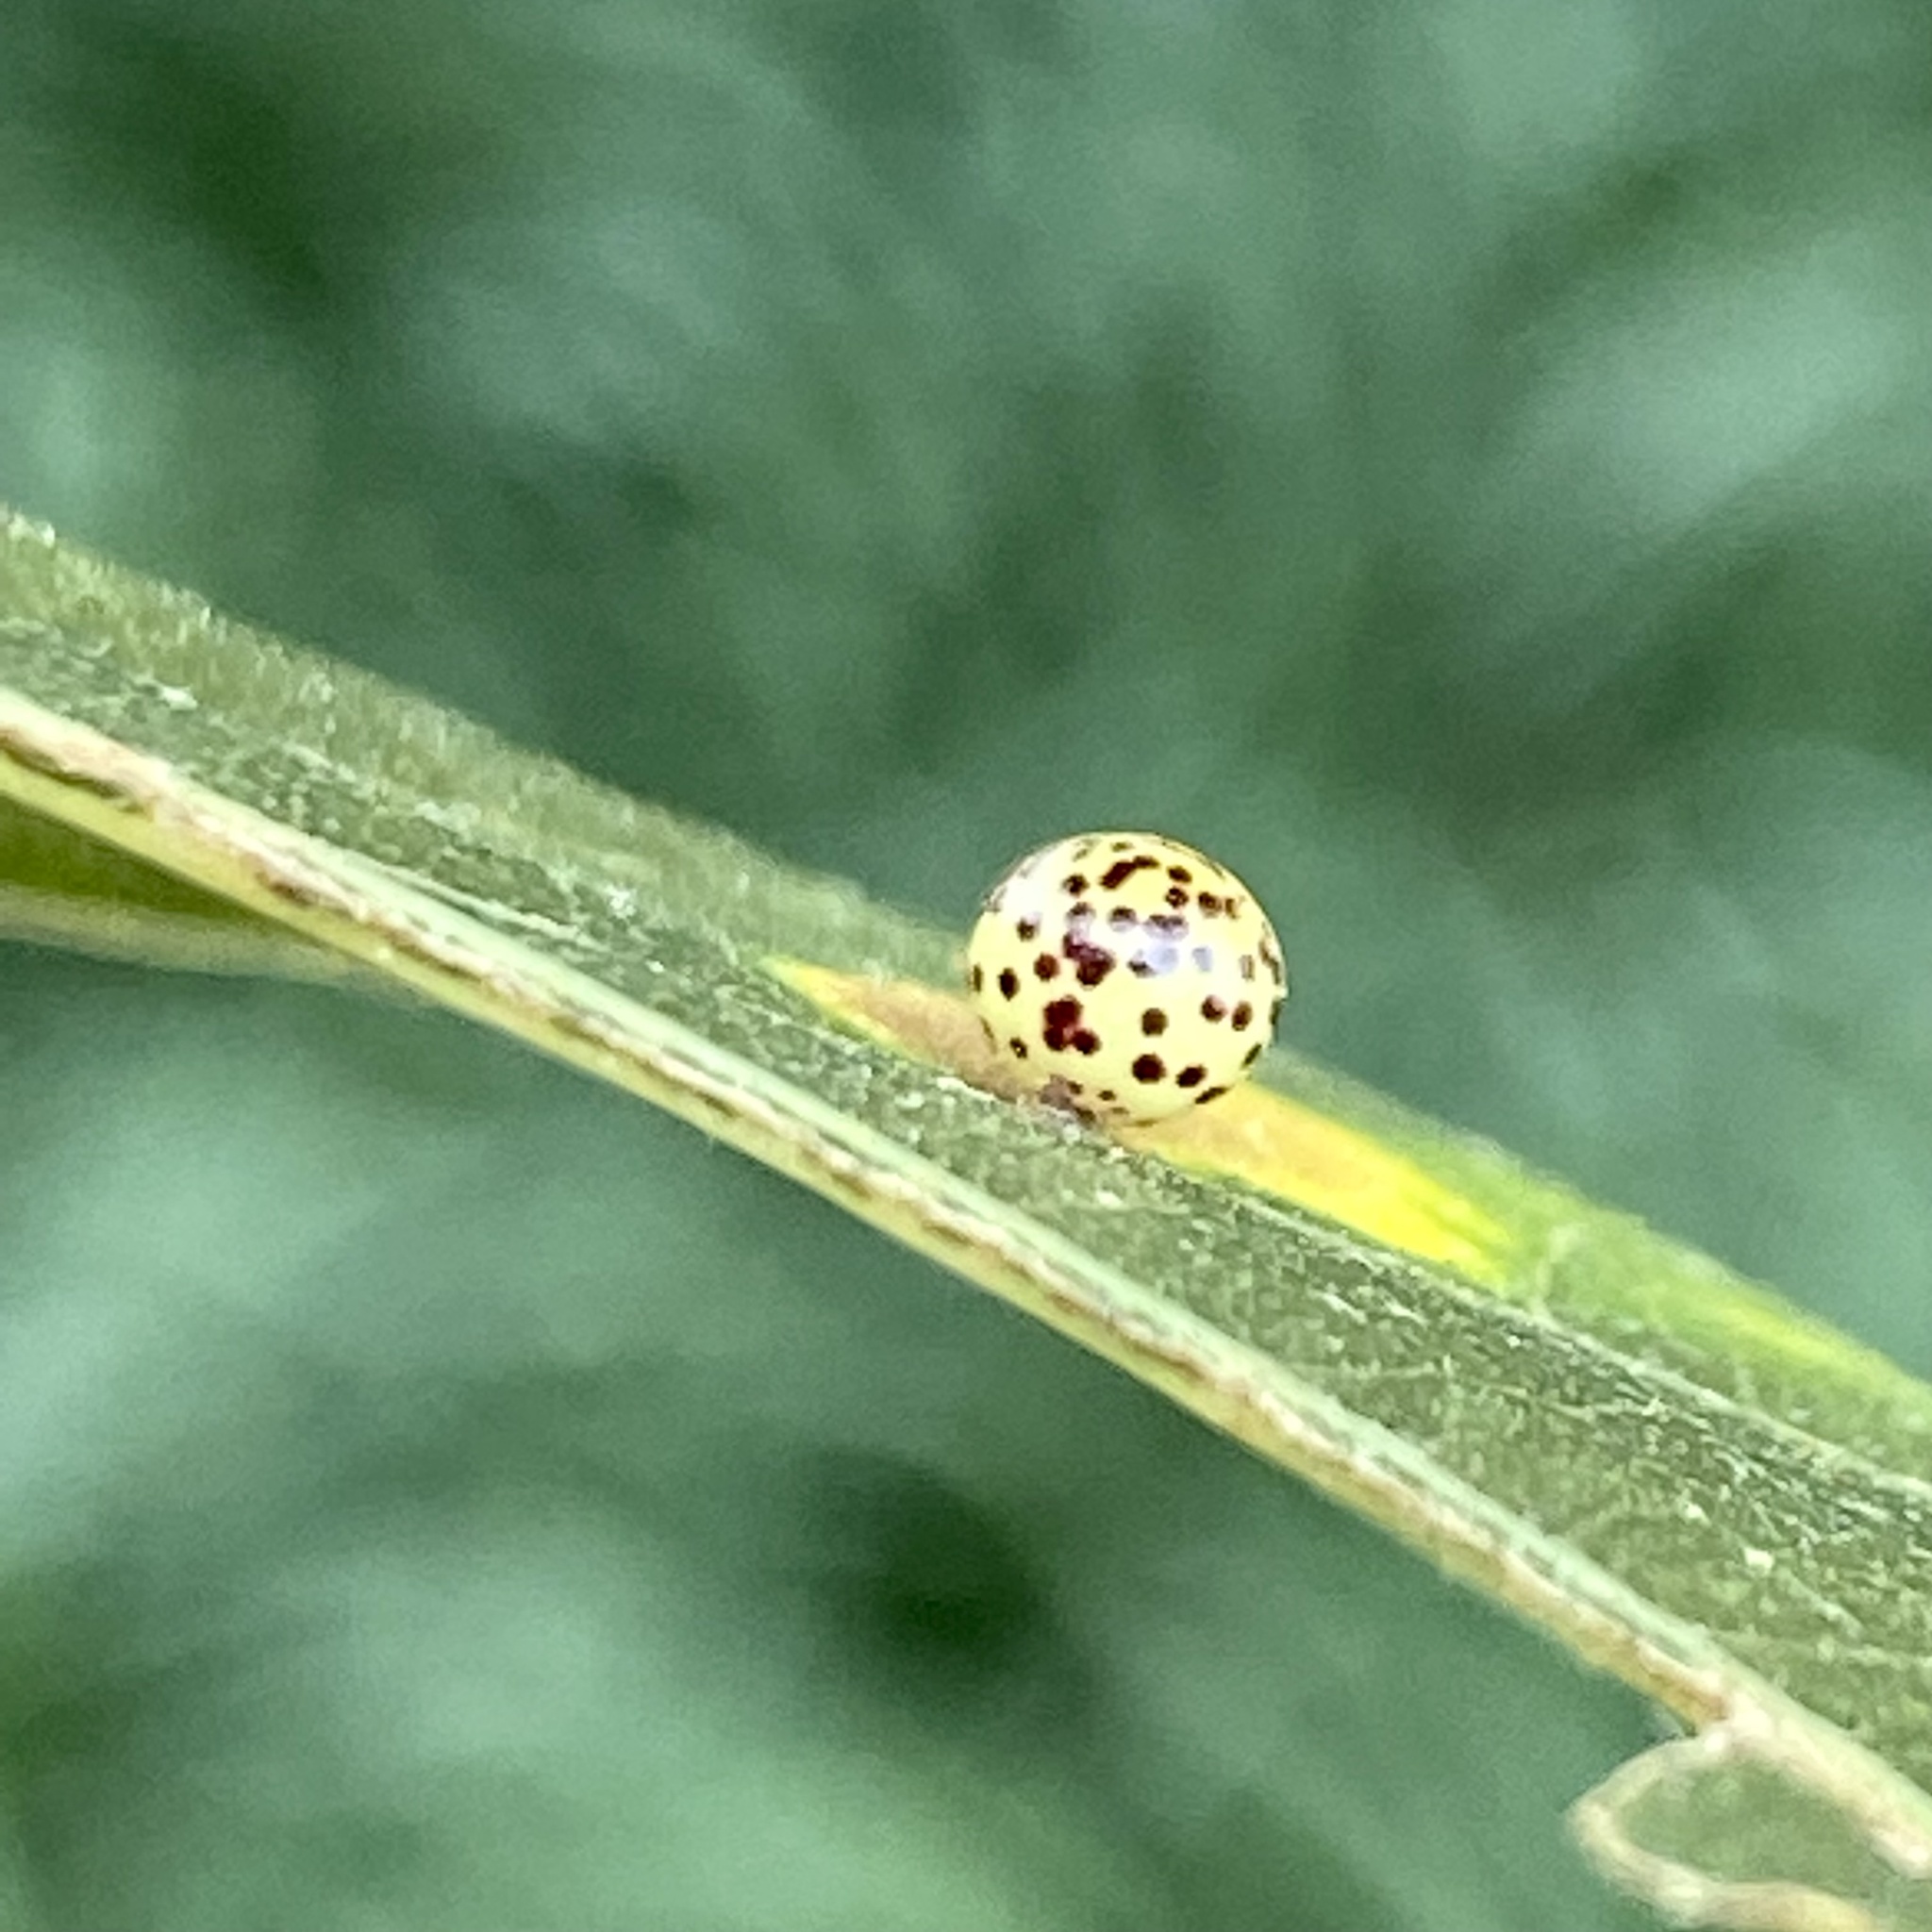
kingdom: Animalia
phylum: Arthropoda
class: Insecta
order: Hymenoptera
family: Cynipidae
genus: Zopheroteras
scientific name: Zopheroteras
